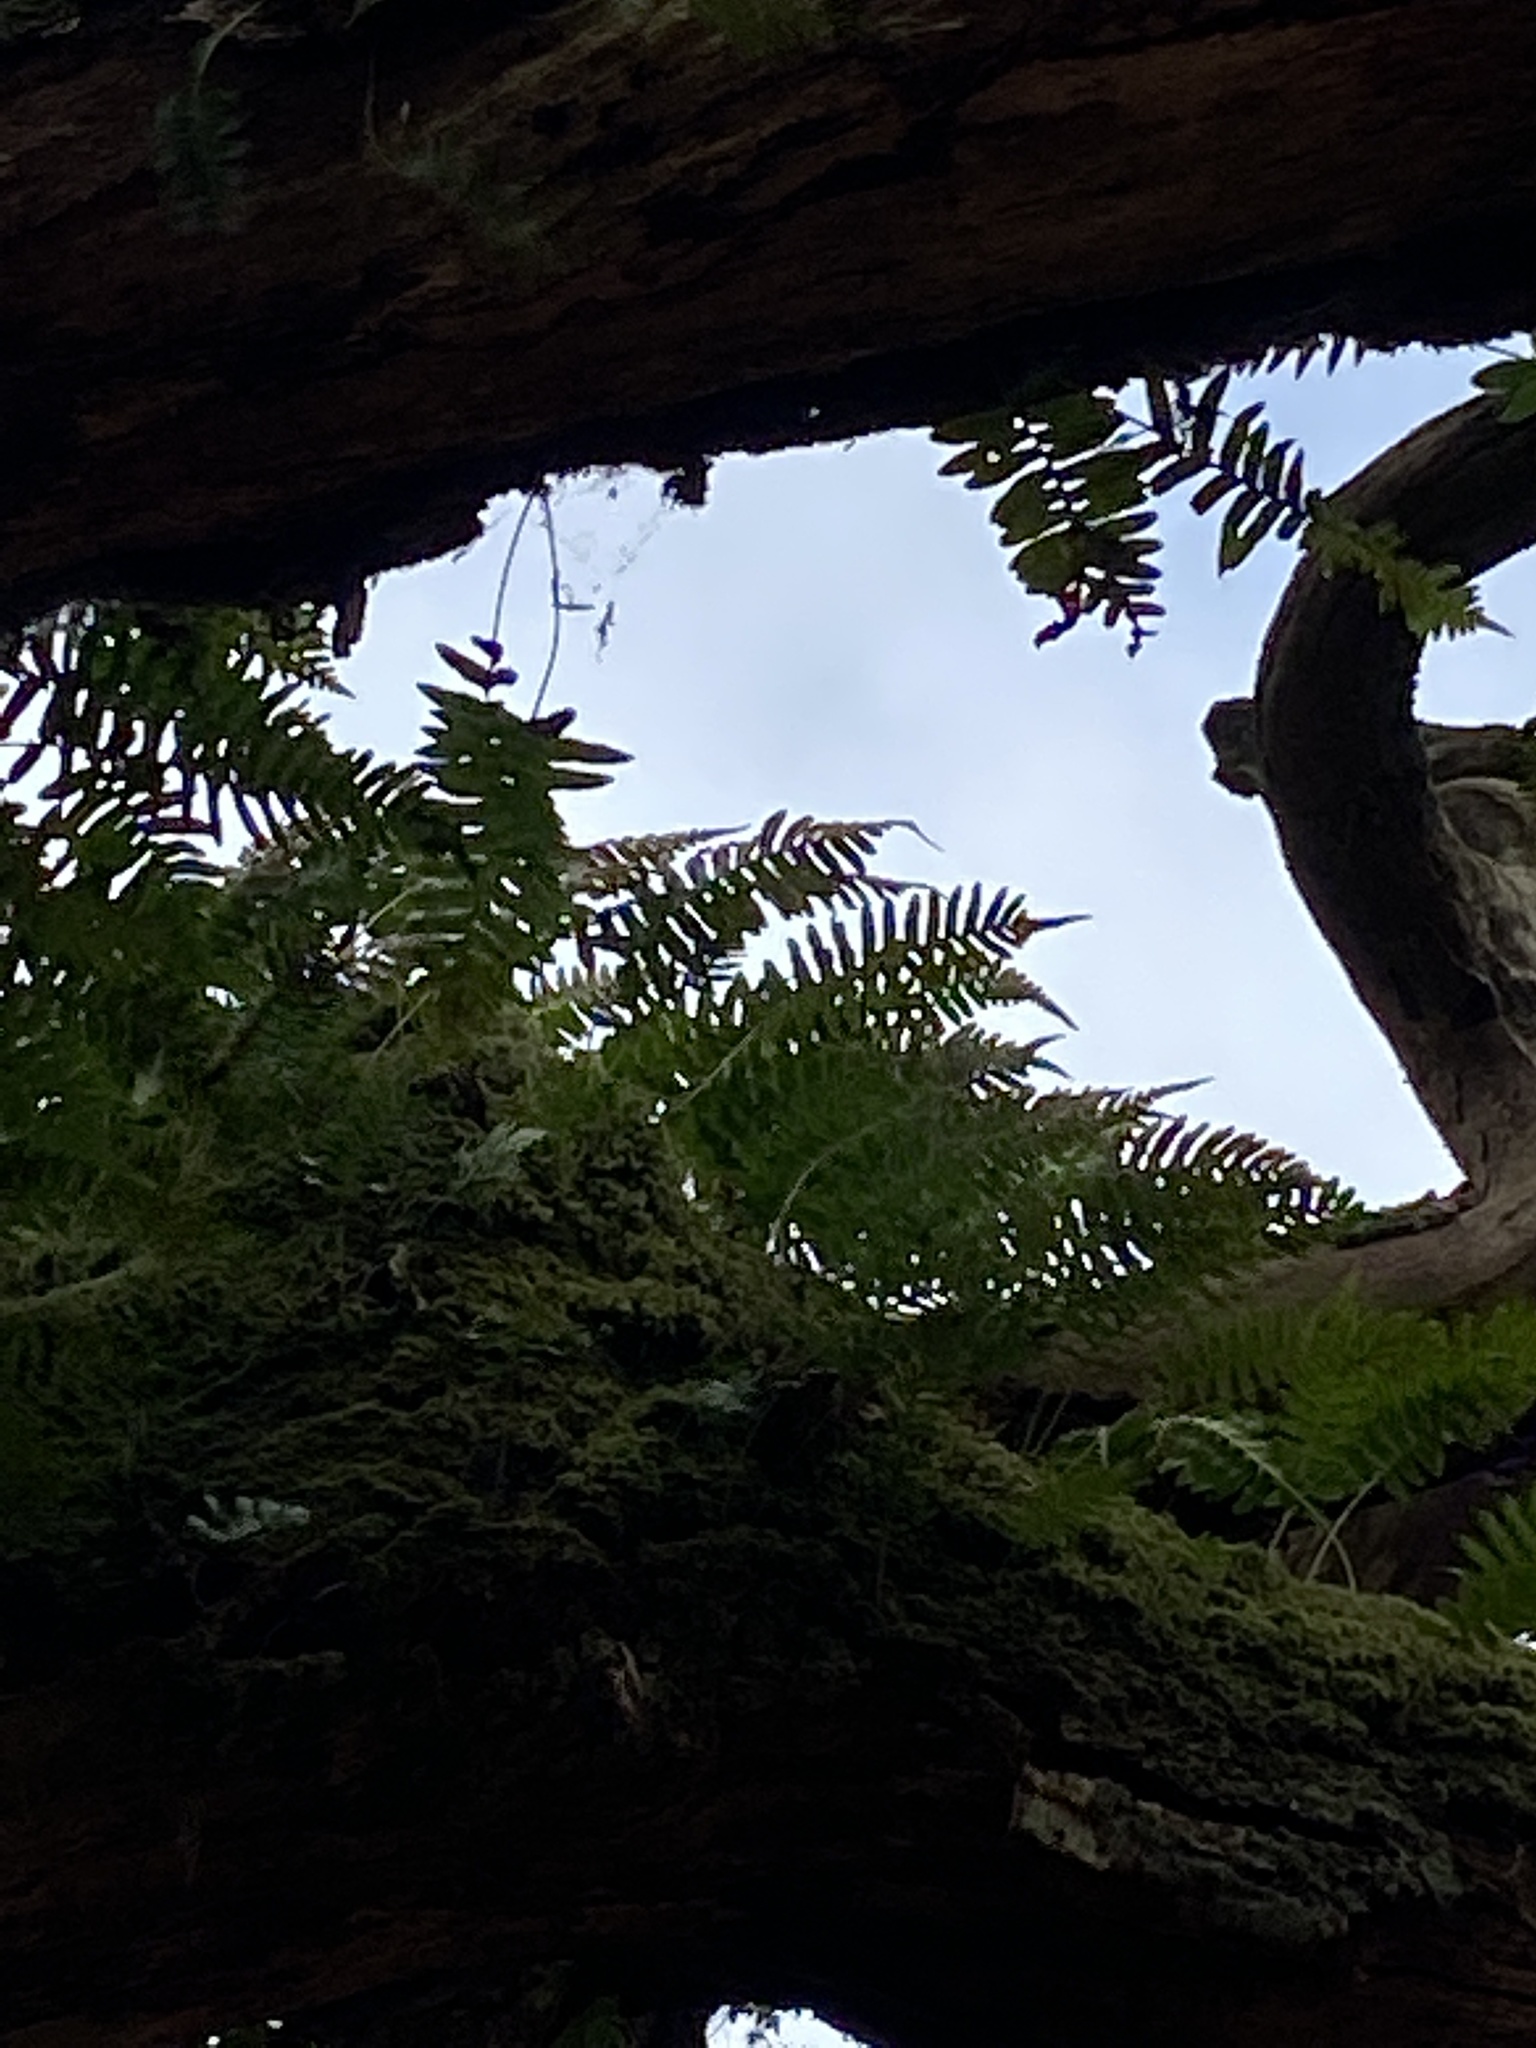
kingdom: Plantae
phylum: Tracheophyta
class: Polypodiopsida
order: Polypodiales
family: Polypodiaceae
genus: Polypodium
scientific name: Polypodium vulgare
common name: Common polypody
